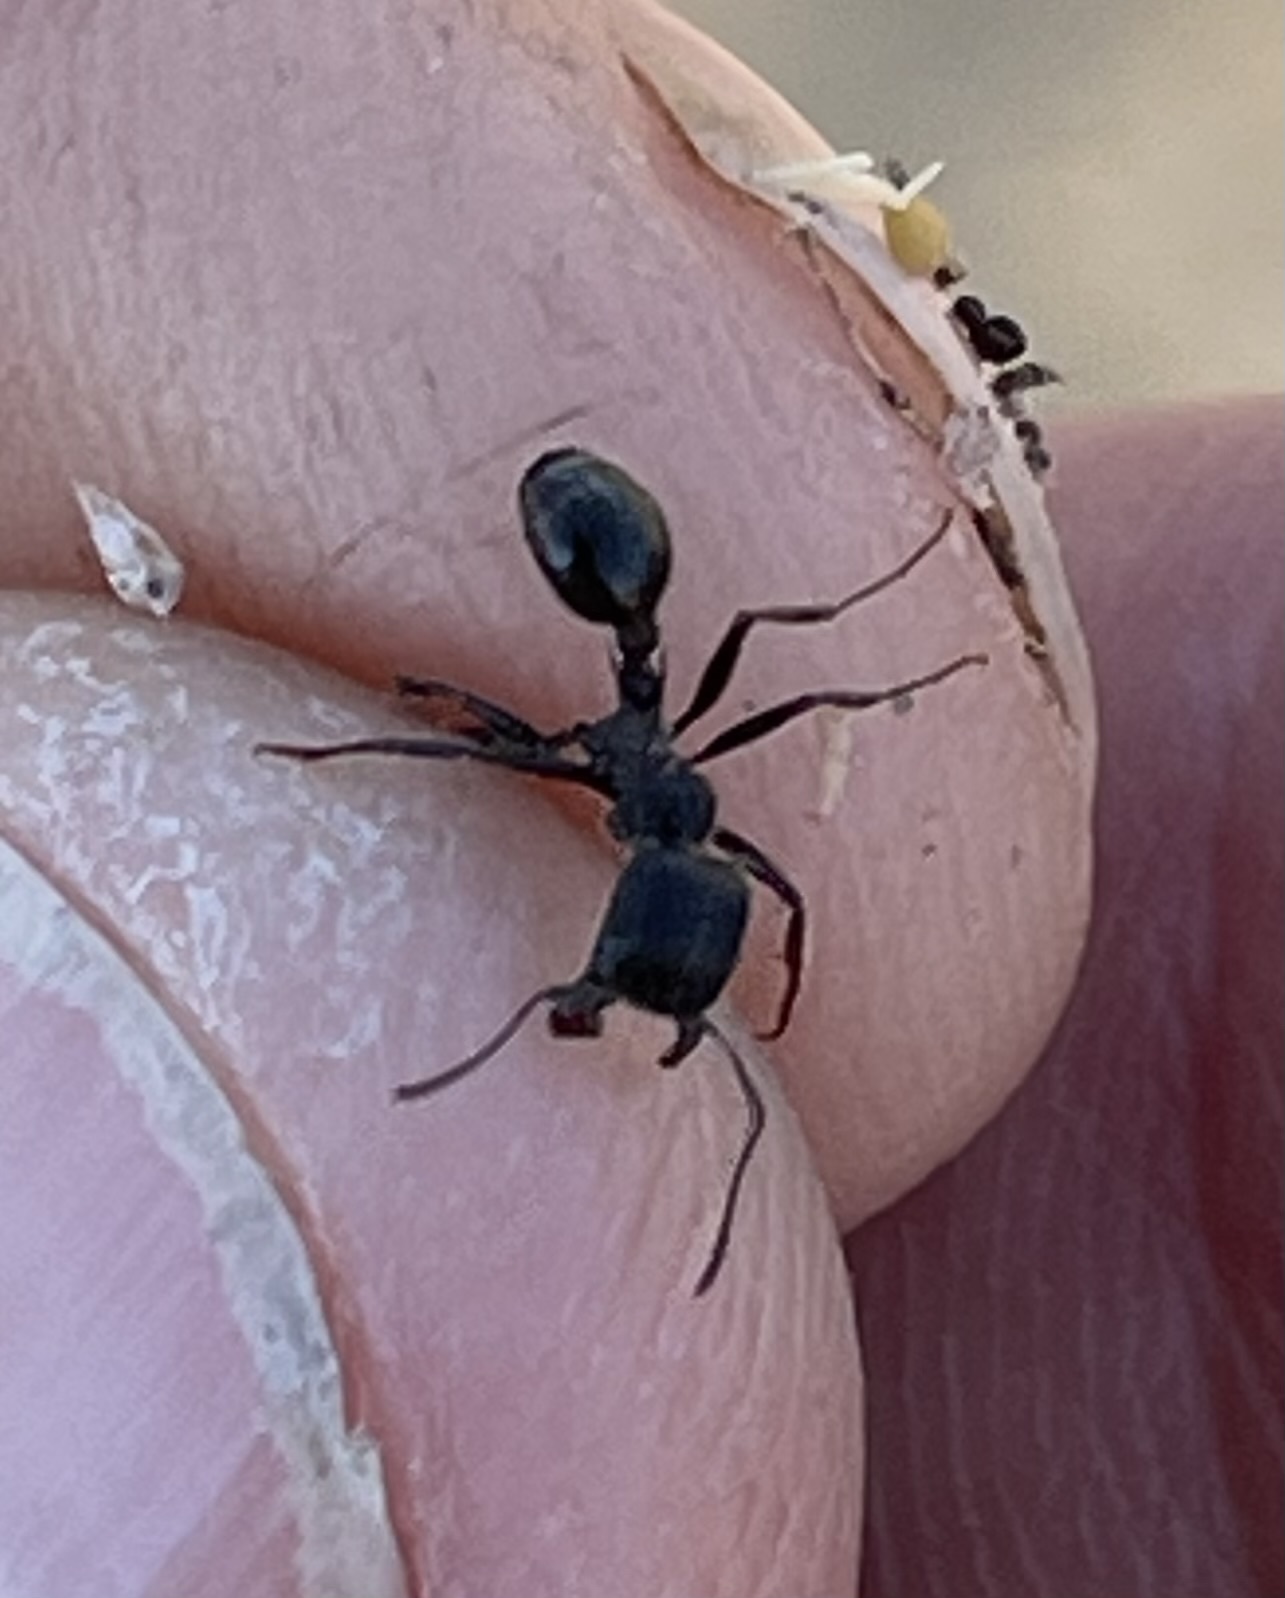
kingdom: Animalia
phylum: Arthropoda
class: Insecta
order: Hymenoptera
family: Formicidae
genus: Veromessor
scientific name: Veromessor andrei
